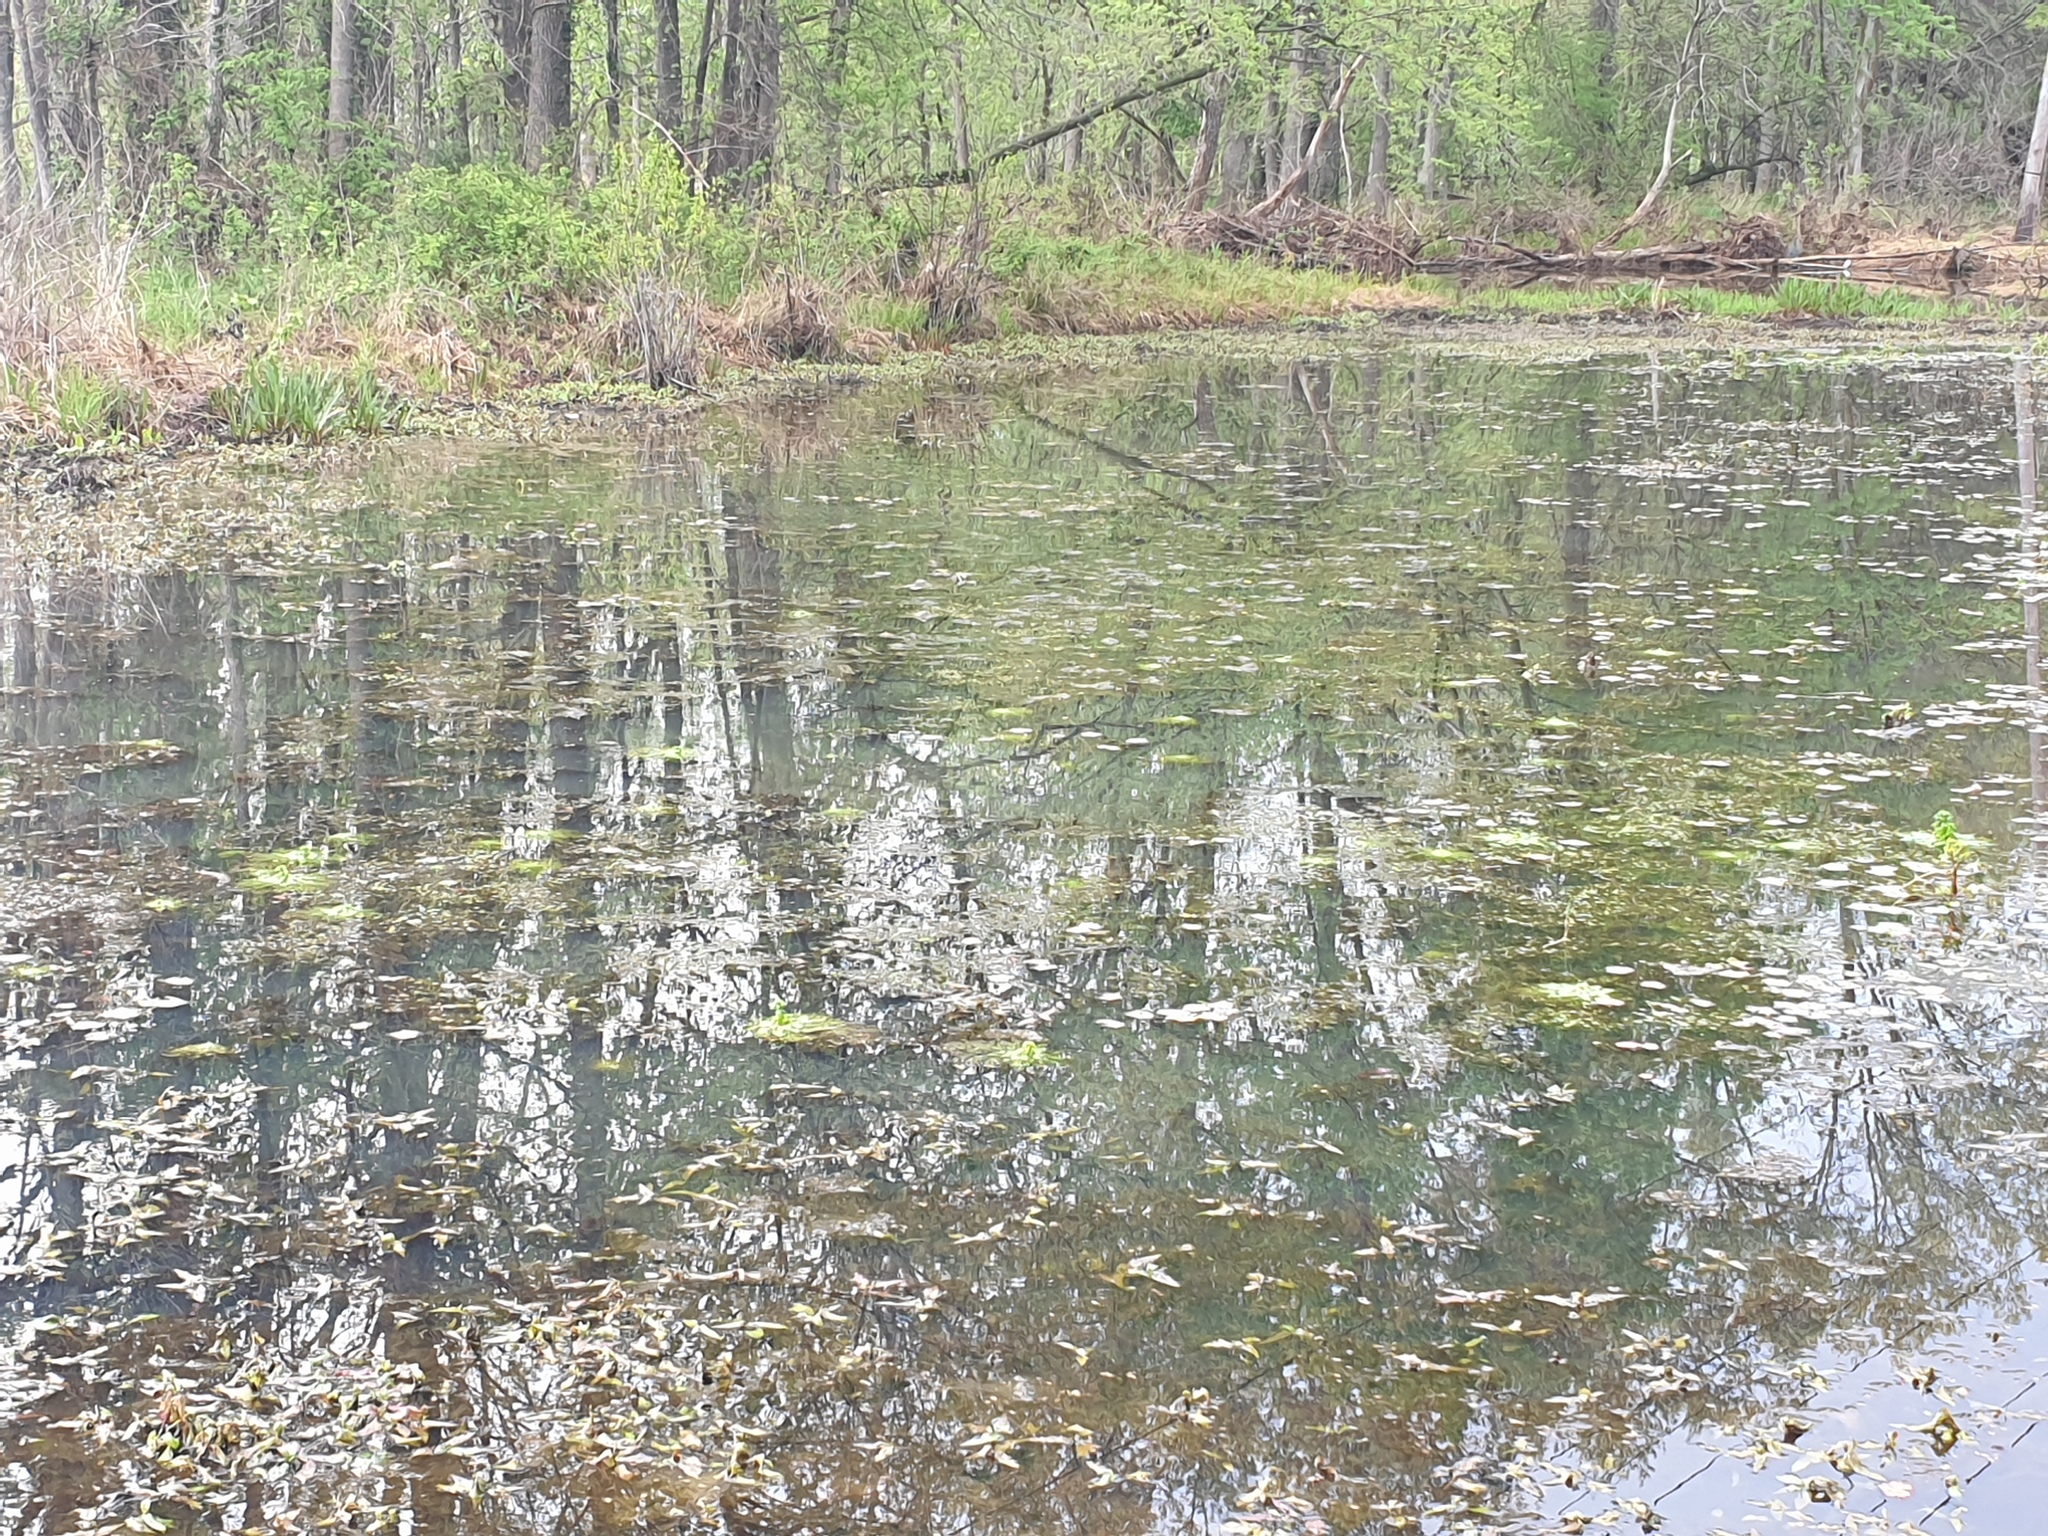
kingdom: Plantae
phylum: Tracheophyta
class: Magnoliopsida
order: Ericales
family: Primulaceae
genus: Hottonia
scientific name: Hottonia inflata
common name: American featherfoil
